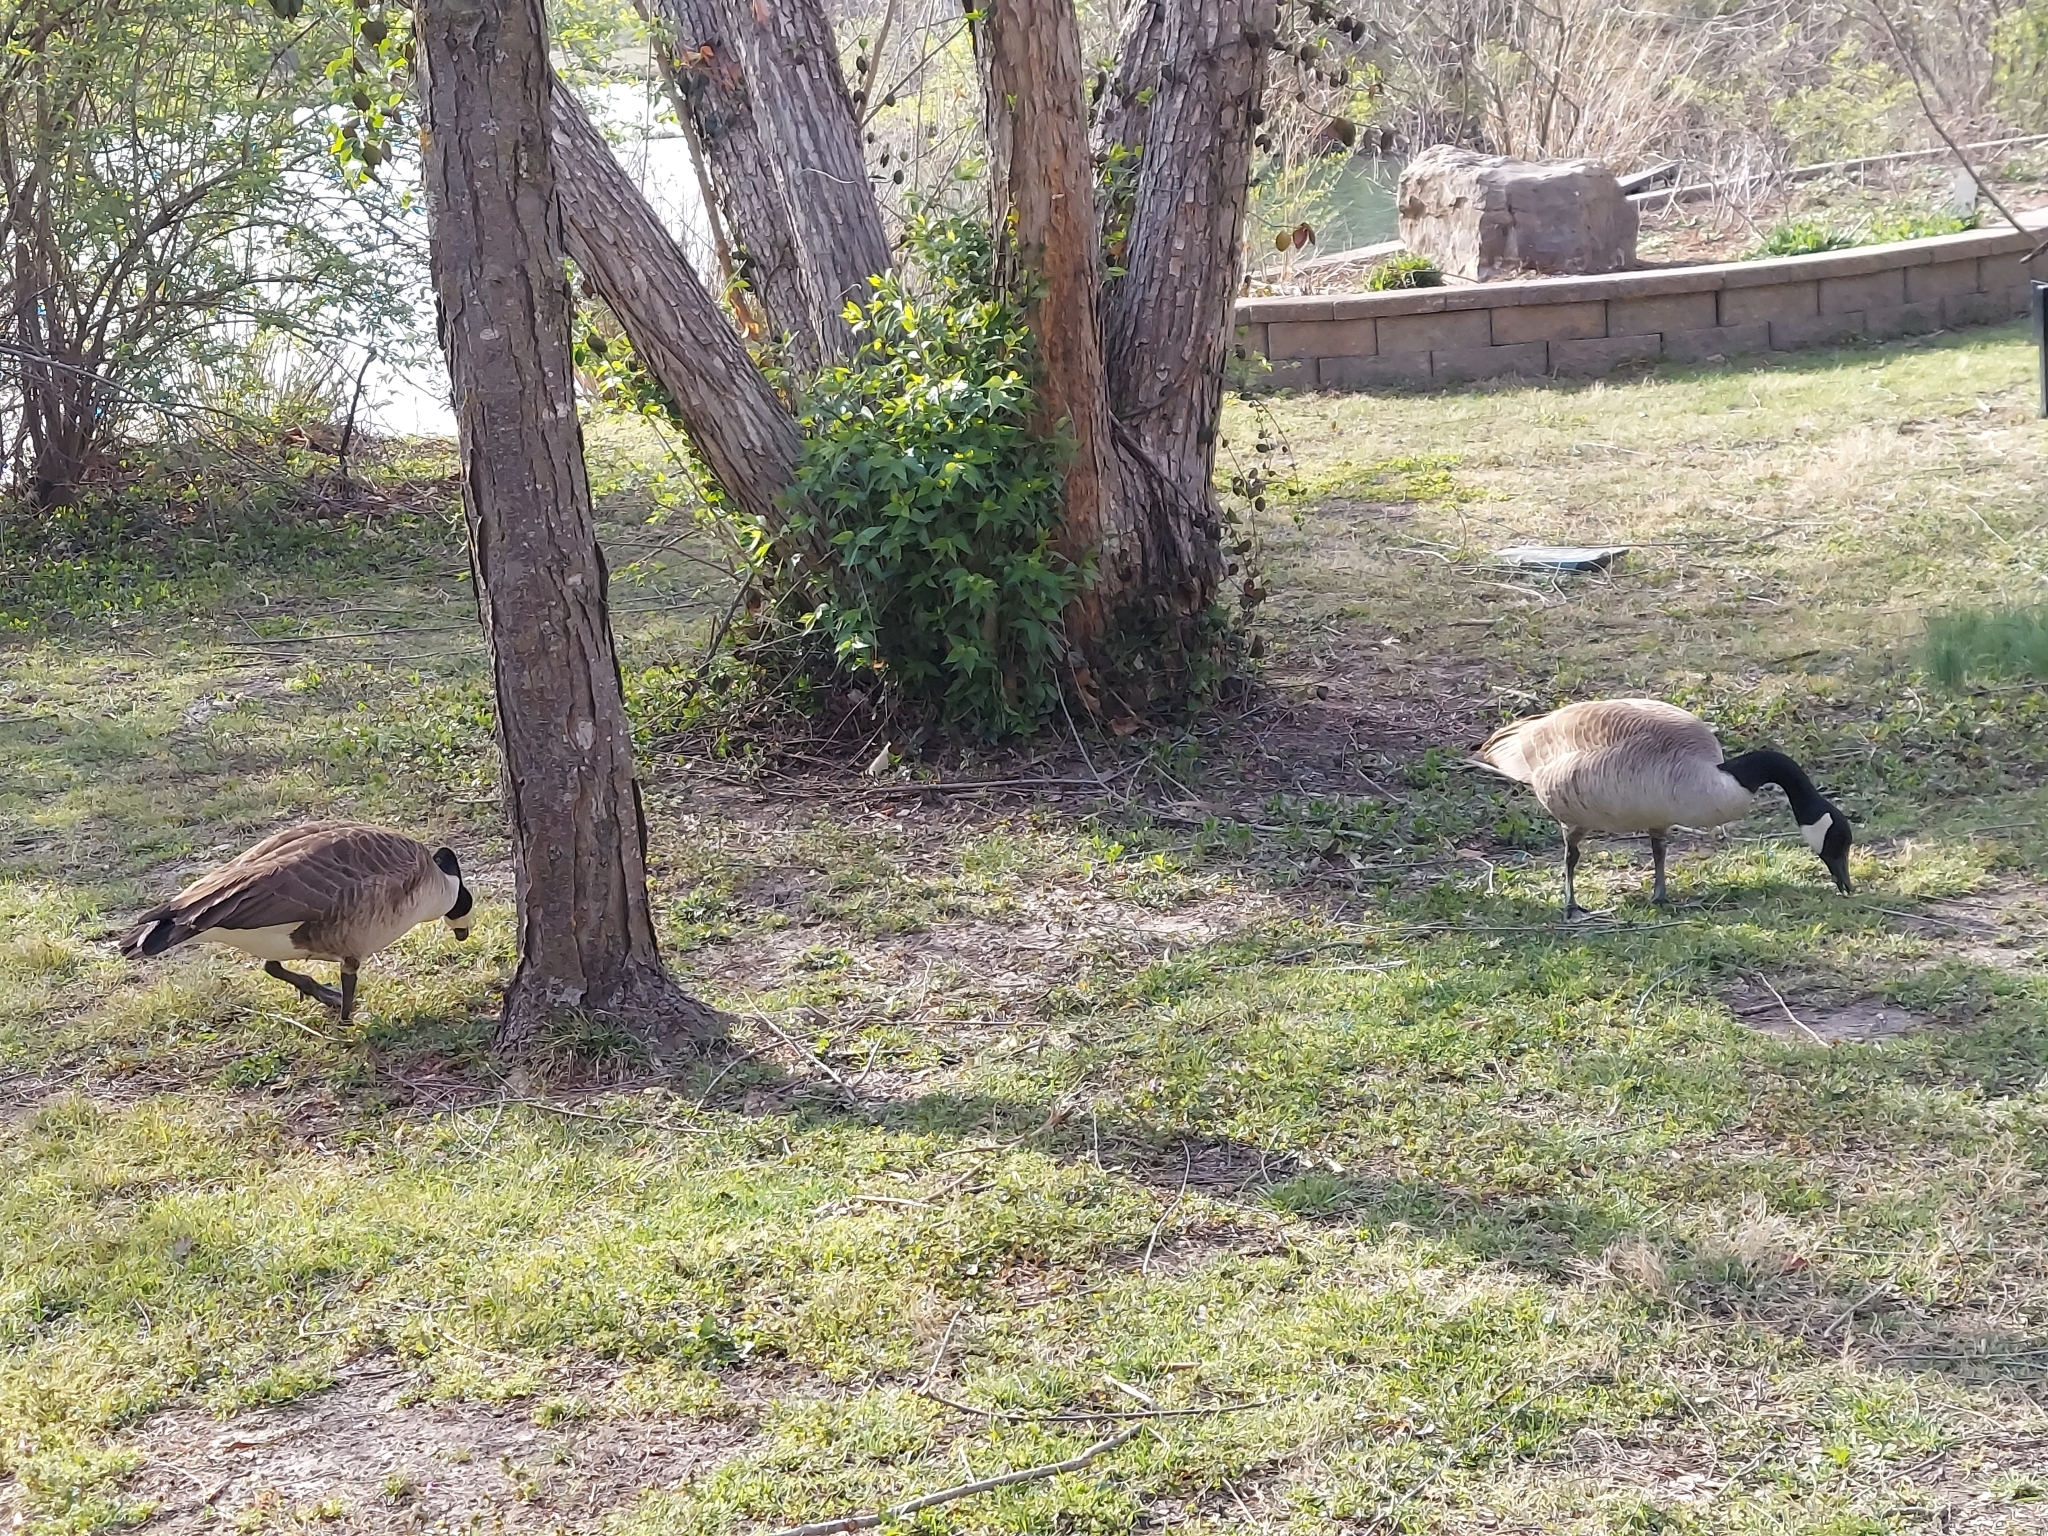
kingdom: Animalia
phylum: Chordata
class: Aves
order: Anseriformes
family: Anatidae
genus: Branta
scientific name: Branta canadensis
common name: Canada goose
